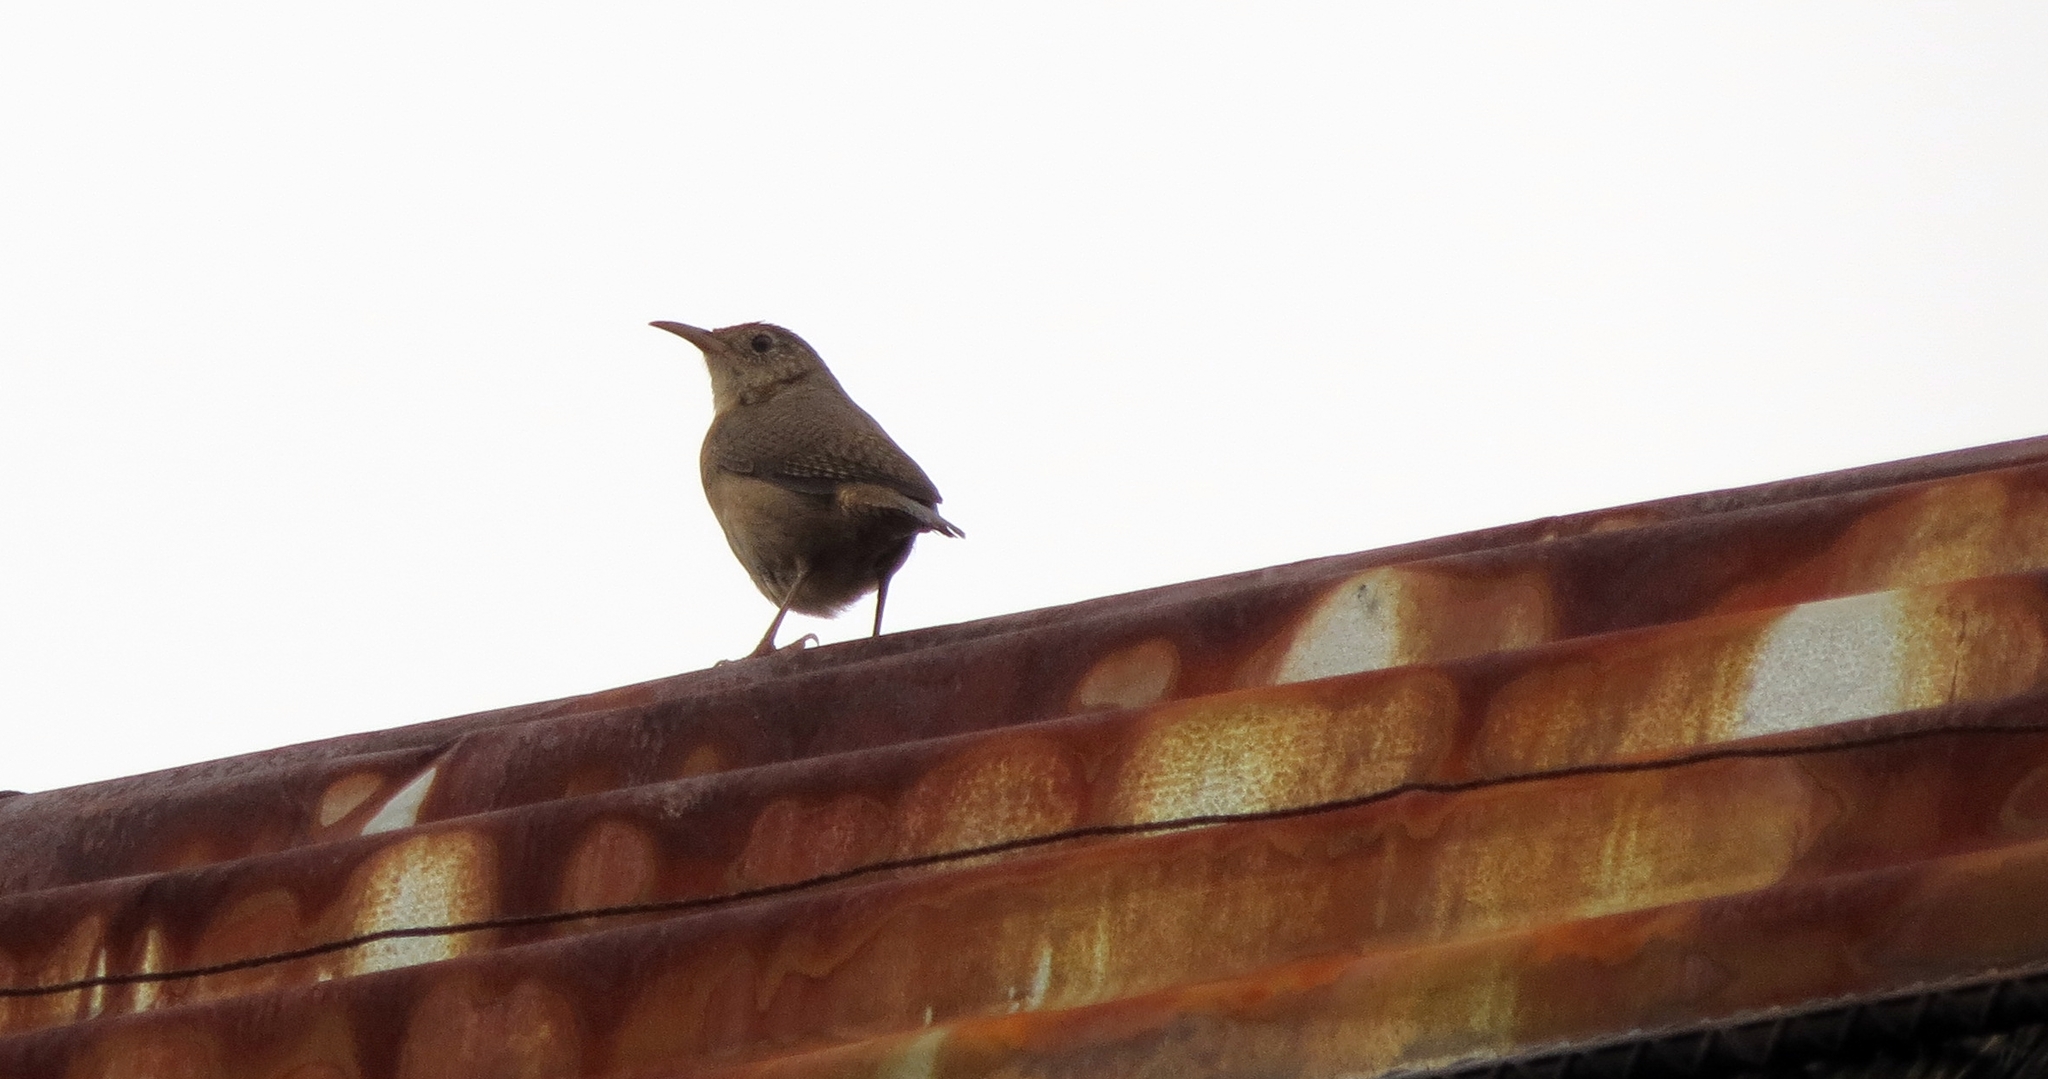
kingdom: Animalia
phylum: Chordata
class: Aves
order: Passeriformes
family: Troglodytidae
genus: Troglodytes
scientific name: Troglodytes aedon
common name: House wren
